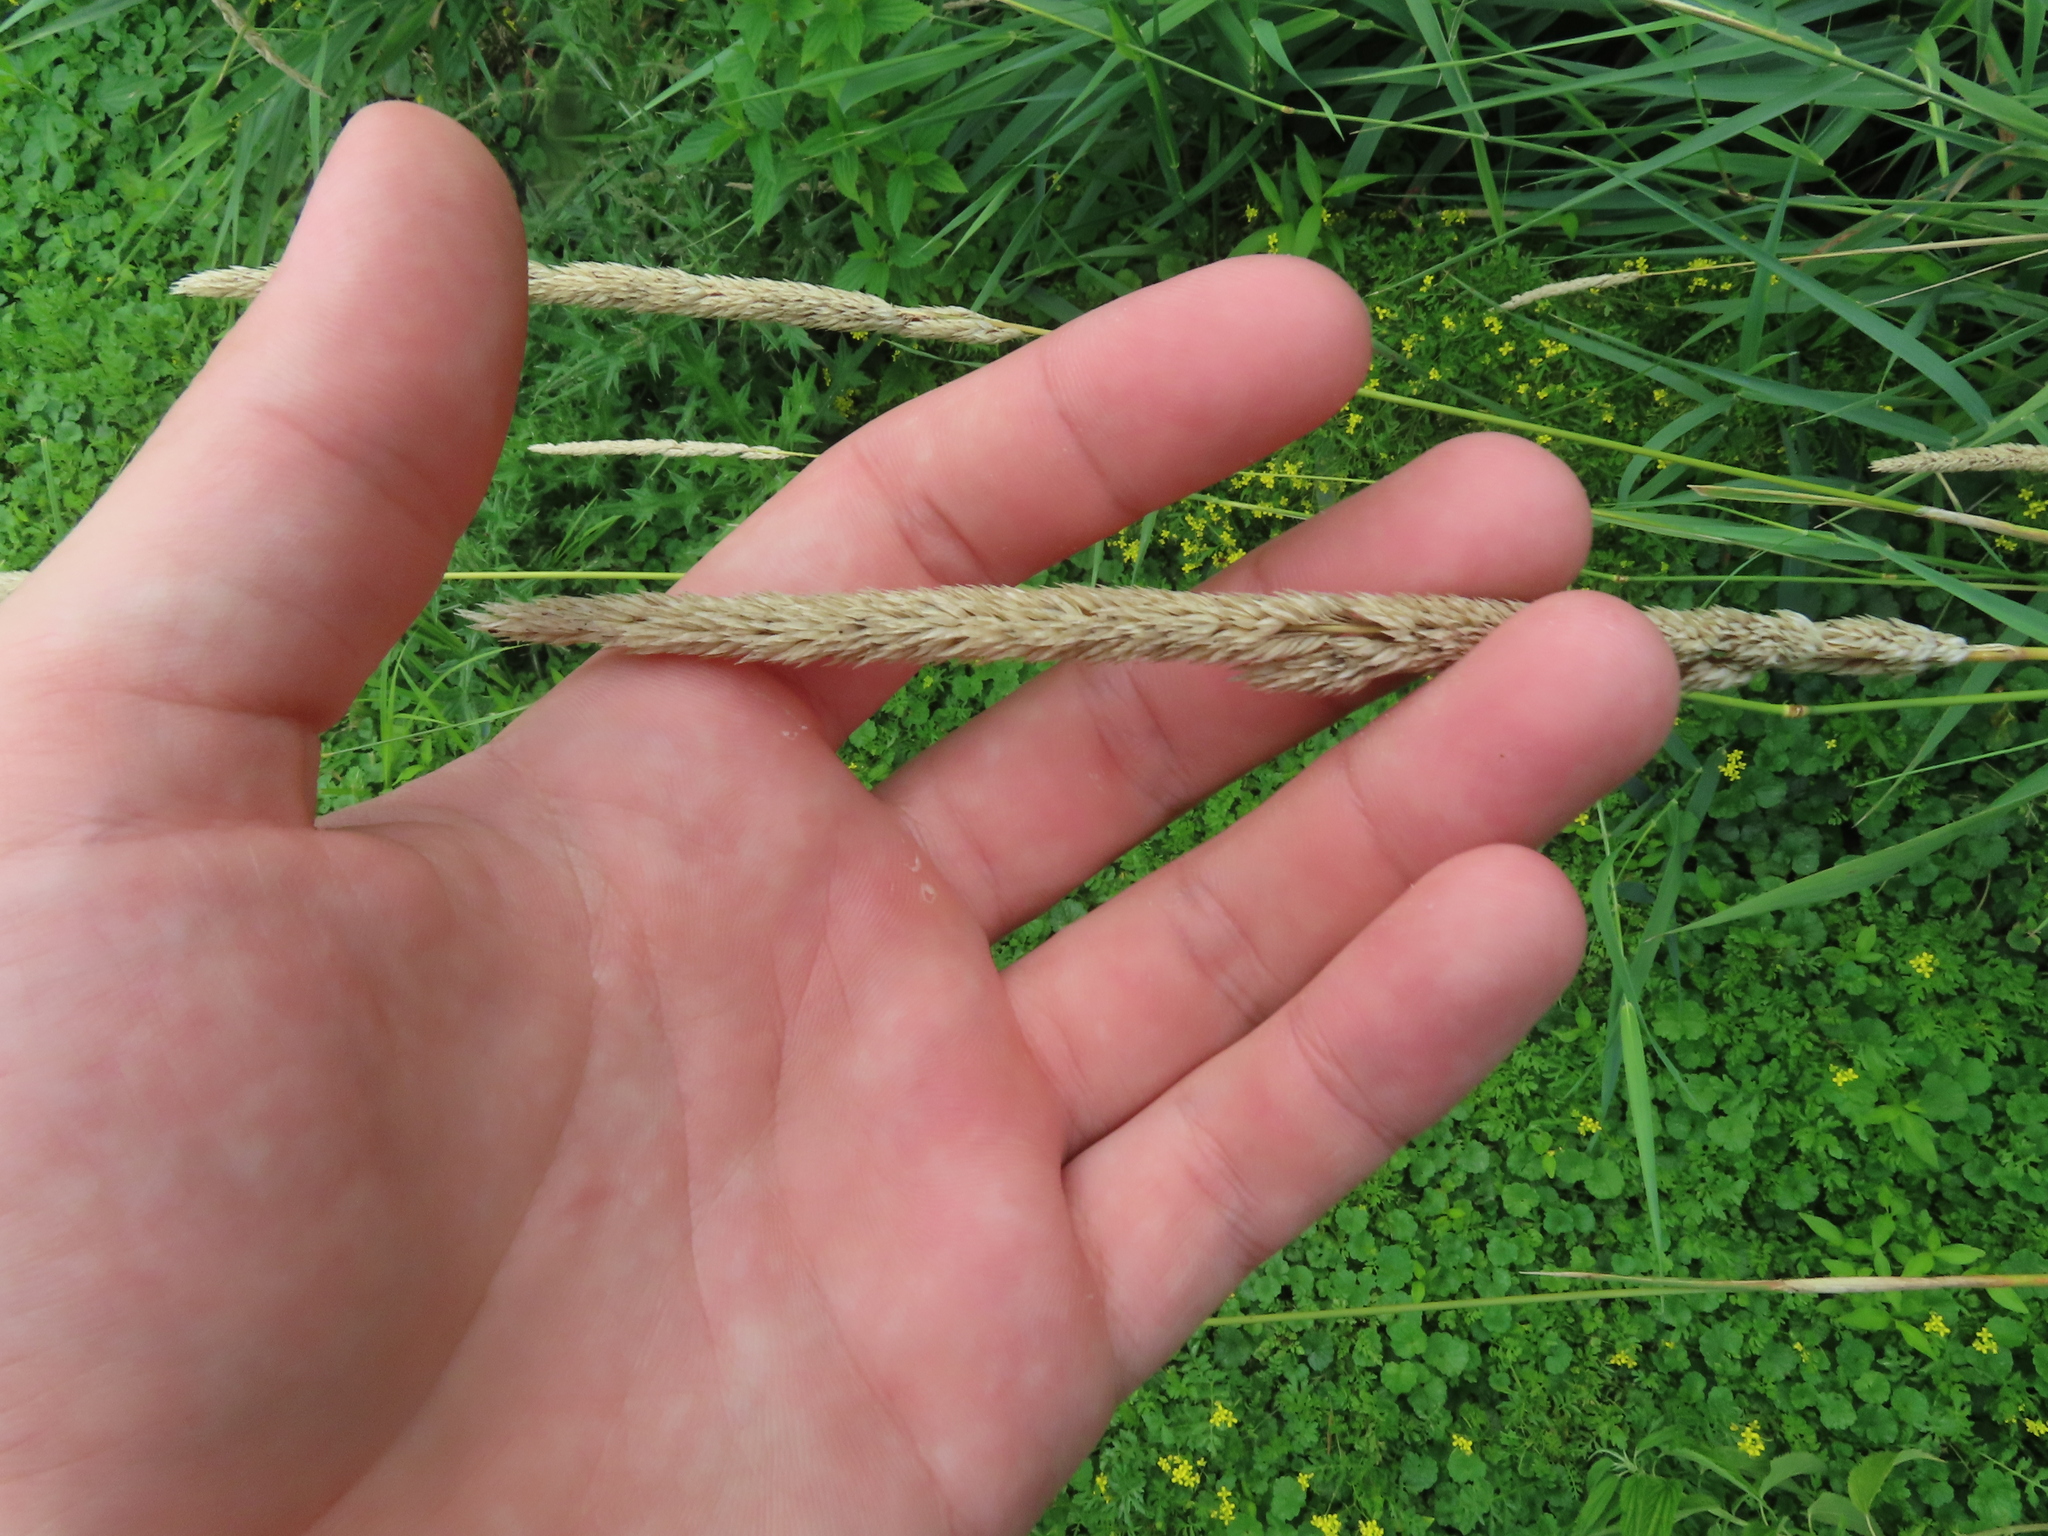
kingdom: Plantae
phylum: Tracheophyta
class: Liliopsida
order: Poales
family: Poaceae
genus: Phalaris
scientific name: Phalaris arundinacea
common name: Reed canary-grass
